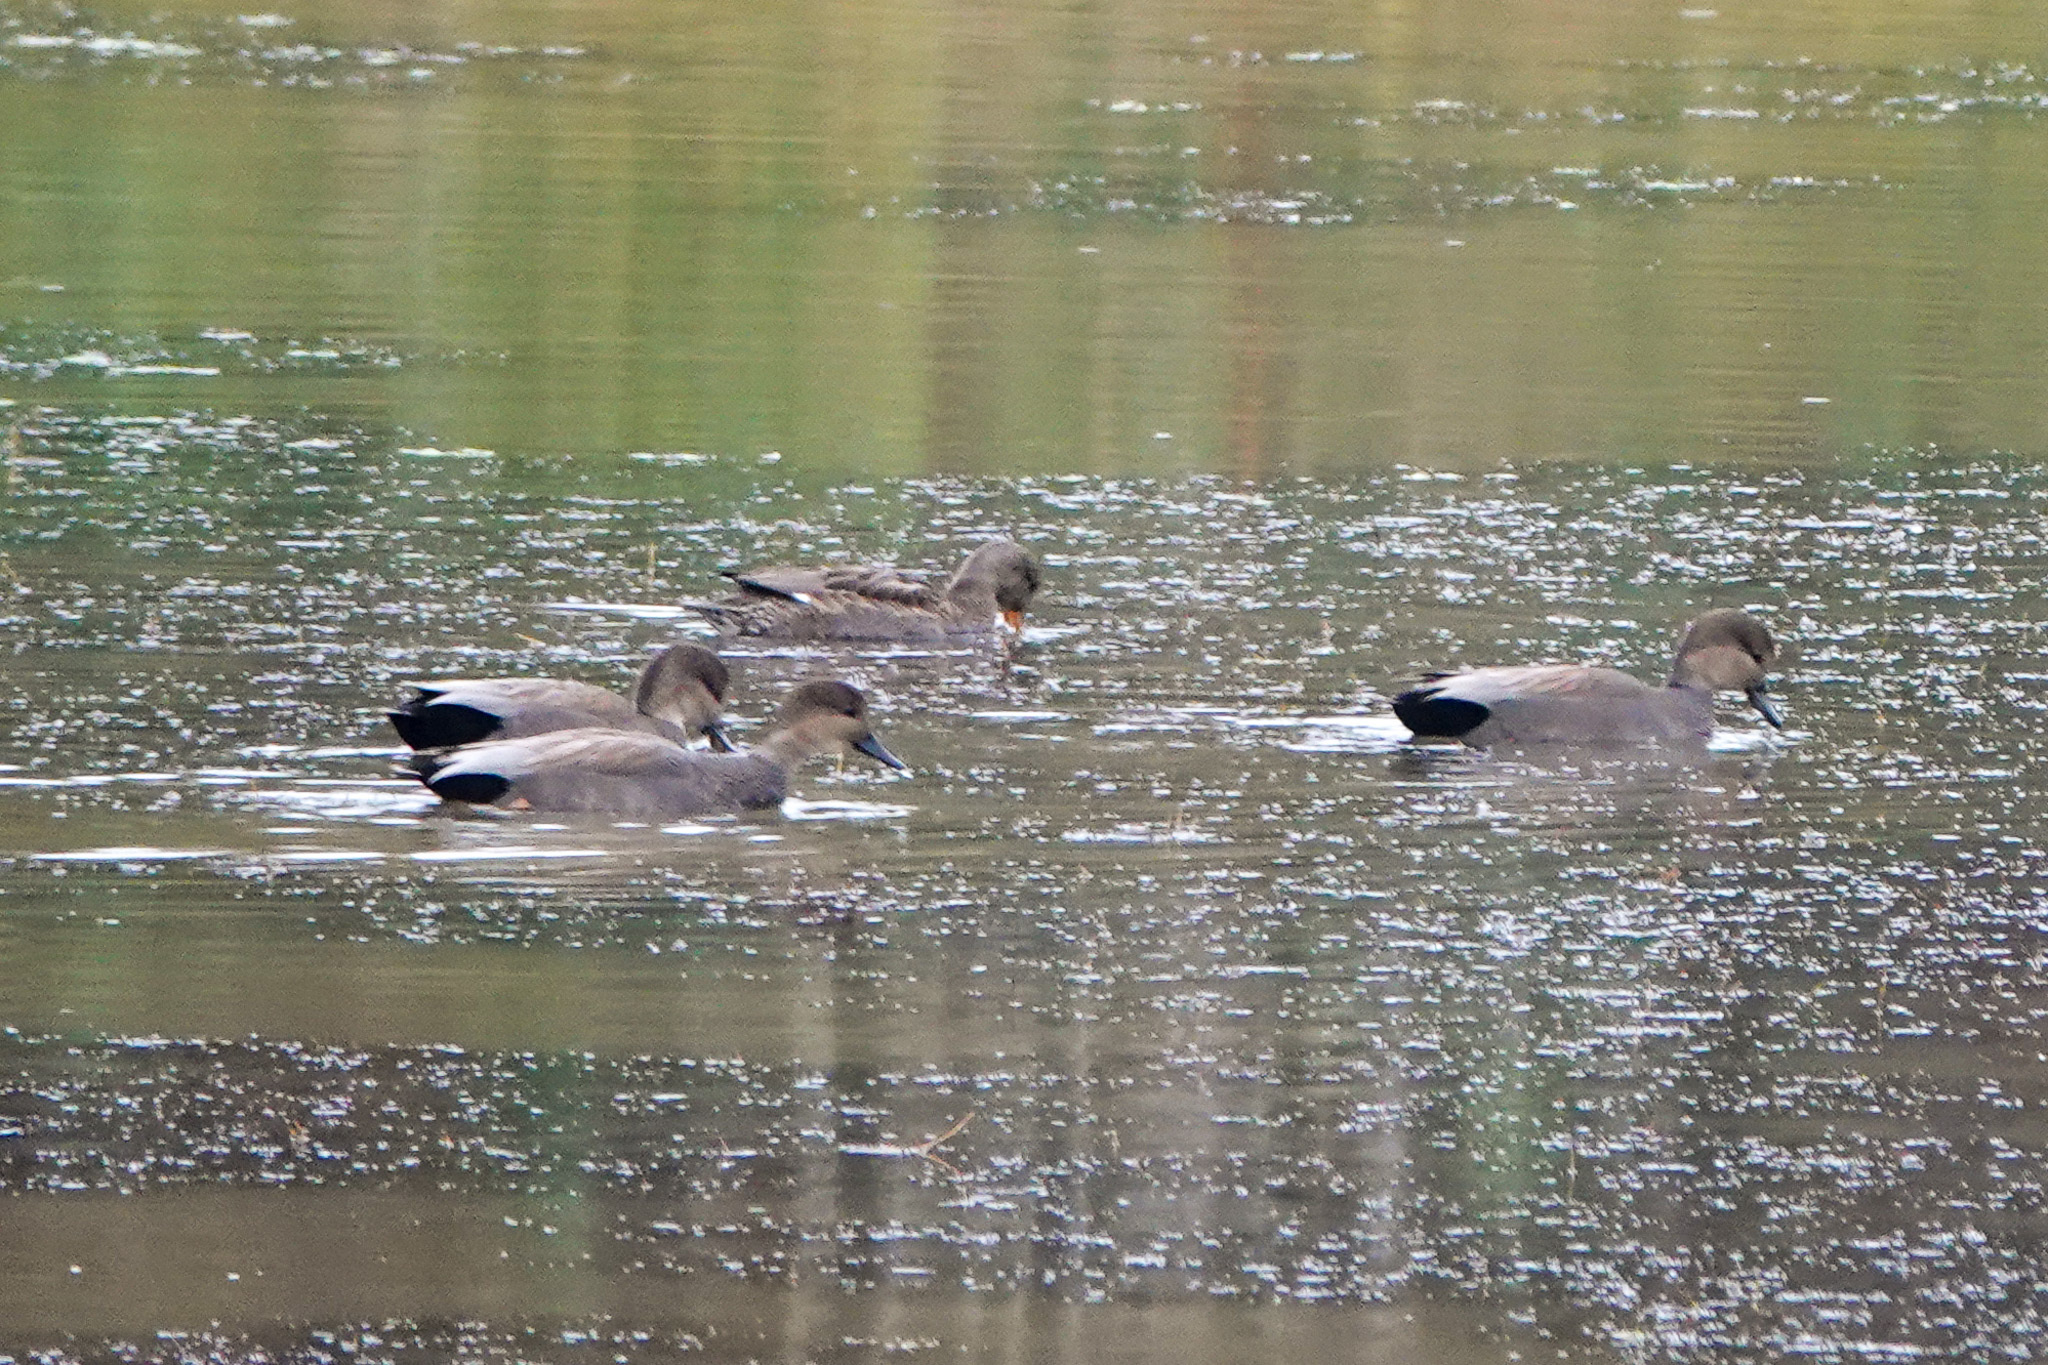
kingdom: Animalia
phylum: Chordata
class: Aves
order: Anseriformes
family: Anatidae
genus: Mareca
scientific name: Mareca strepera
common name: Gadwall
